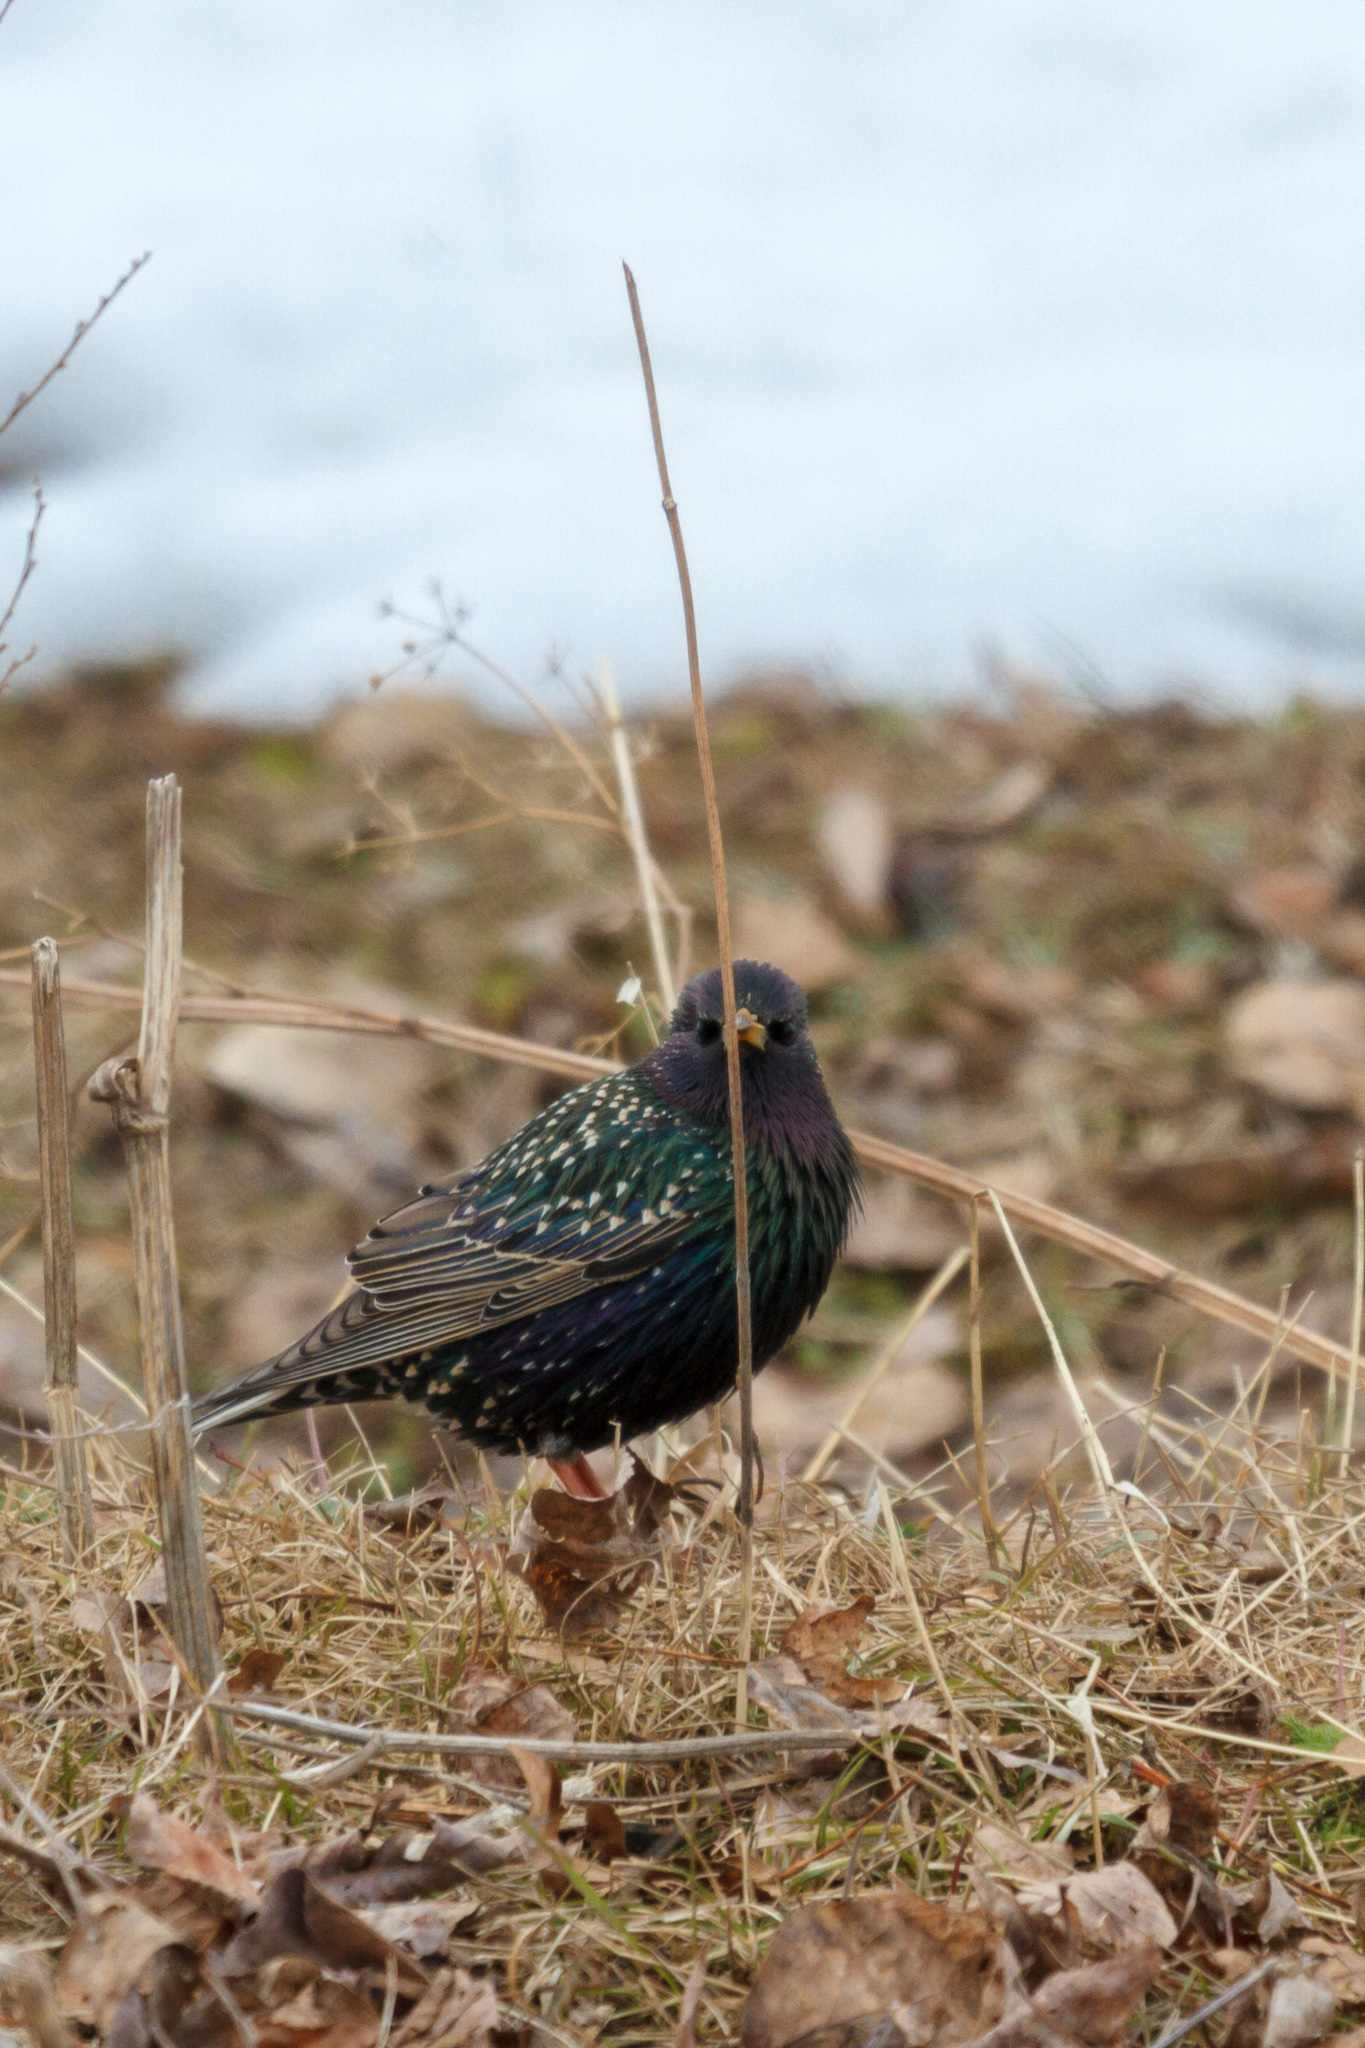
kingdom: Animalia
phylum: Chordata
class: Aves
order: Passeriformes
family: Sturnidae
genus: Sturnus
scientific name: Sturnus vulgaris
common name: Common starling
